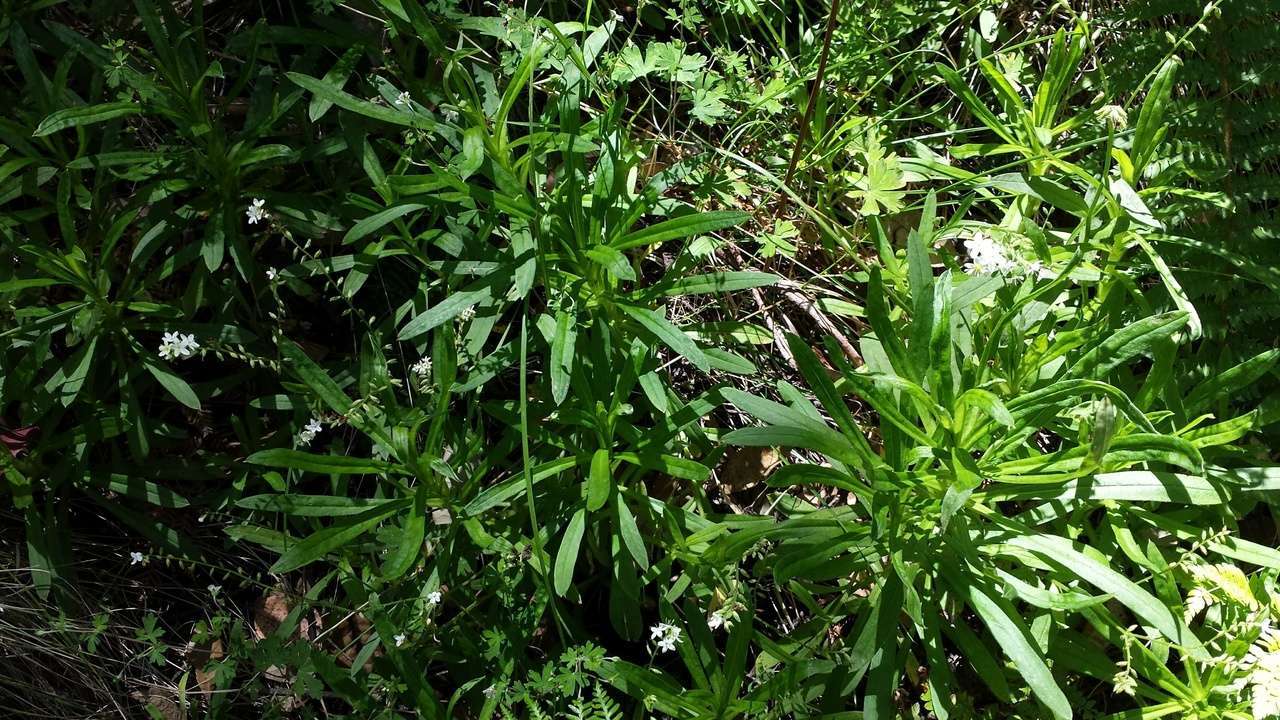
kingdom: Plantae
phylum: Tracheophyta
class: Magnoliopsida
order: Boraginales
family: Boraginaceae
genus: Myosotis
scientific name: Myosotis exarrhena
